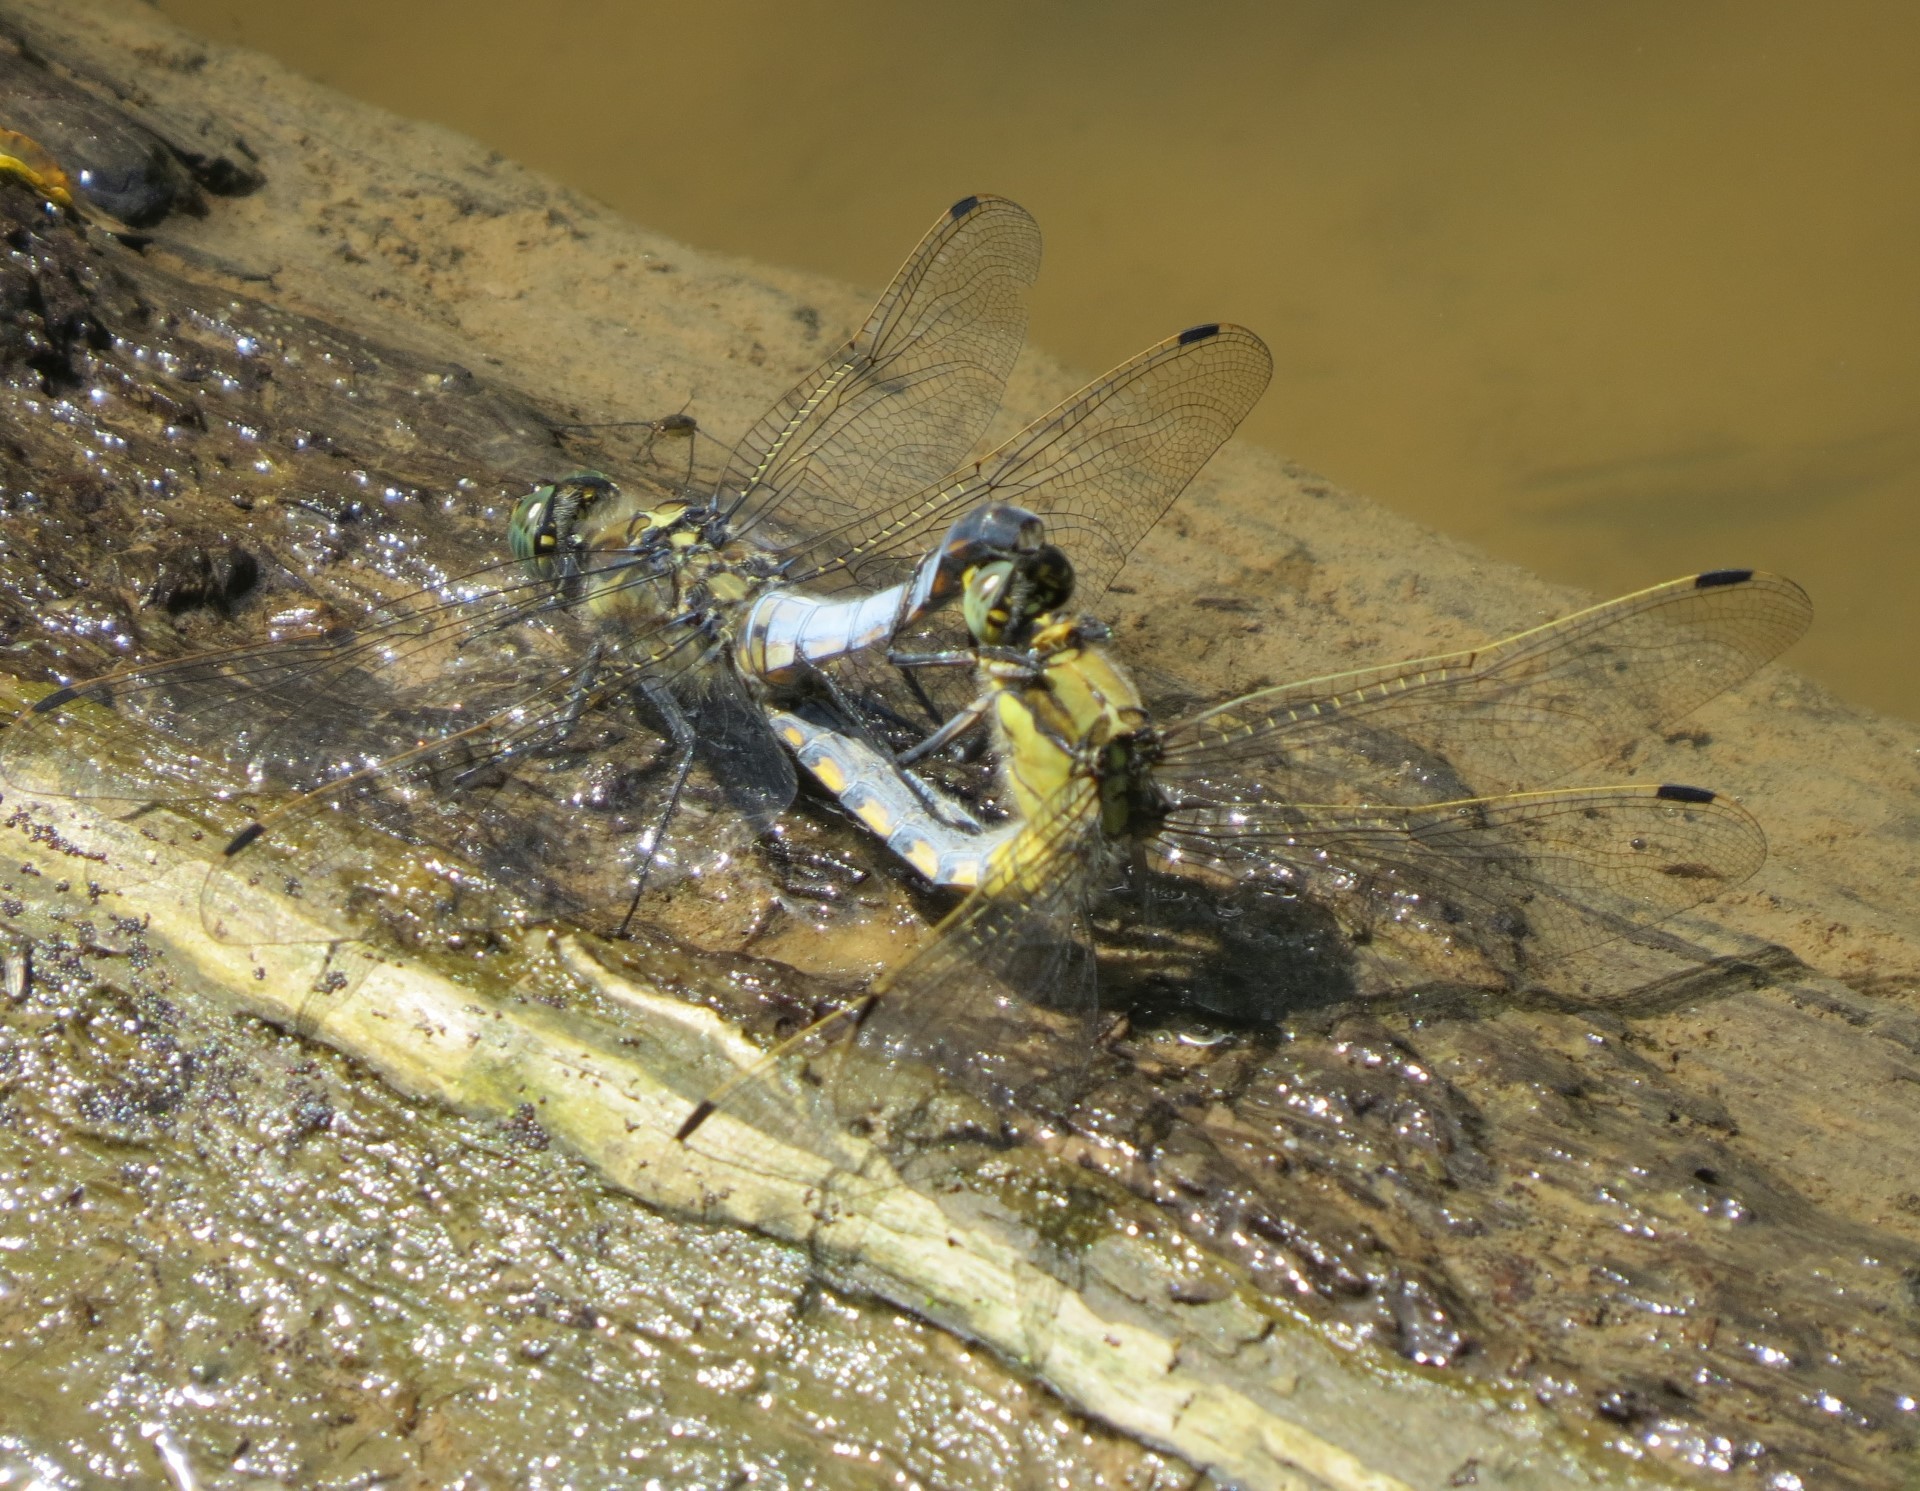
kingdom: Animalia
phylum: Arthropoda
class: Insecta
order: Odonata
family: Libellulidae
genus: Orthetrum
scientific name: Orthetrum cancellatum
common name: Black-tailed skimmer
